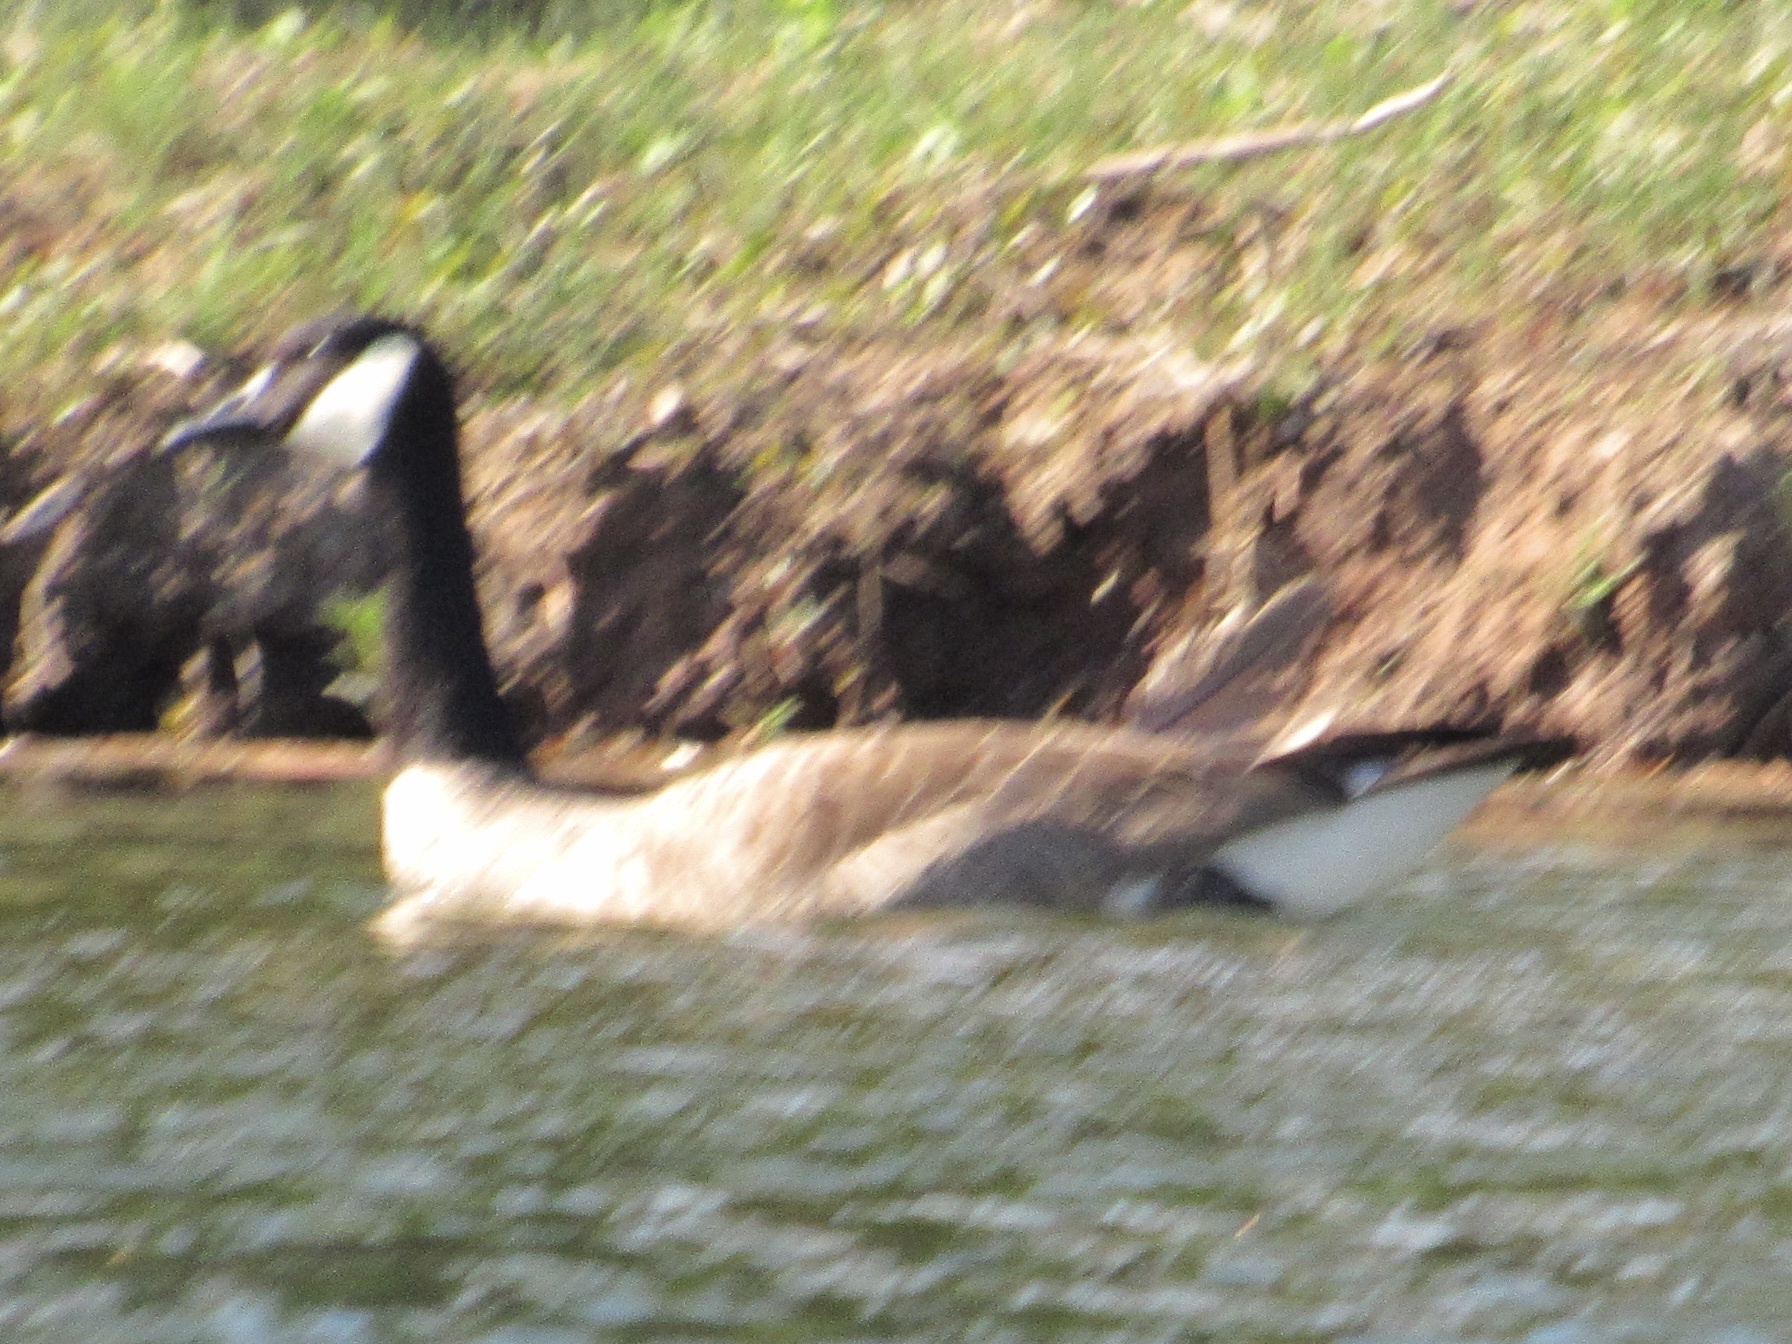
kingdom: Animalia
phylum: Chordata
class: Aves
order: Anseriformes
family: Anatidae
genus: Branta
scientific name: Branta canadensis
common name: Canada goose
